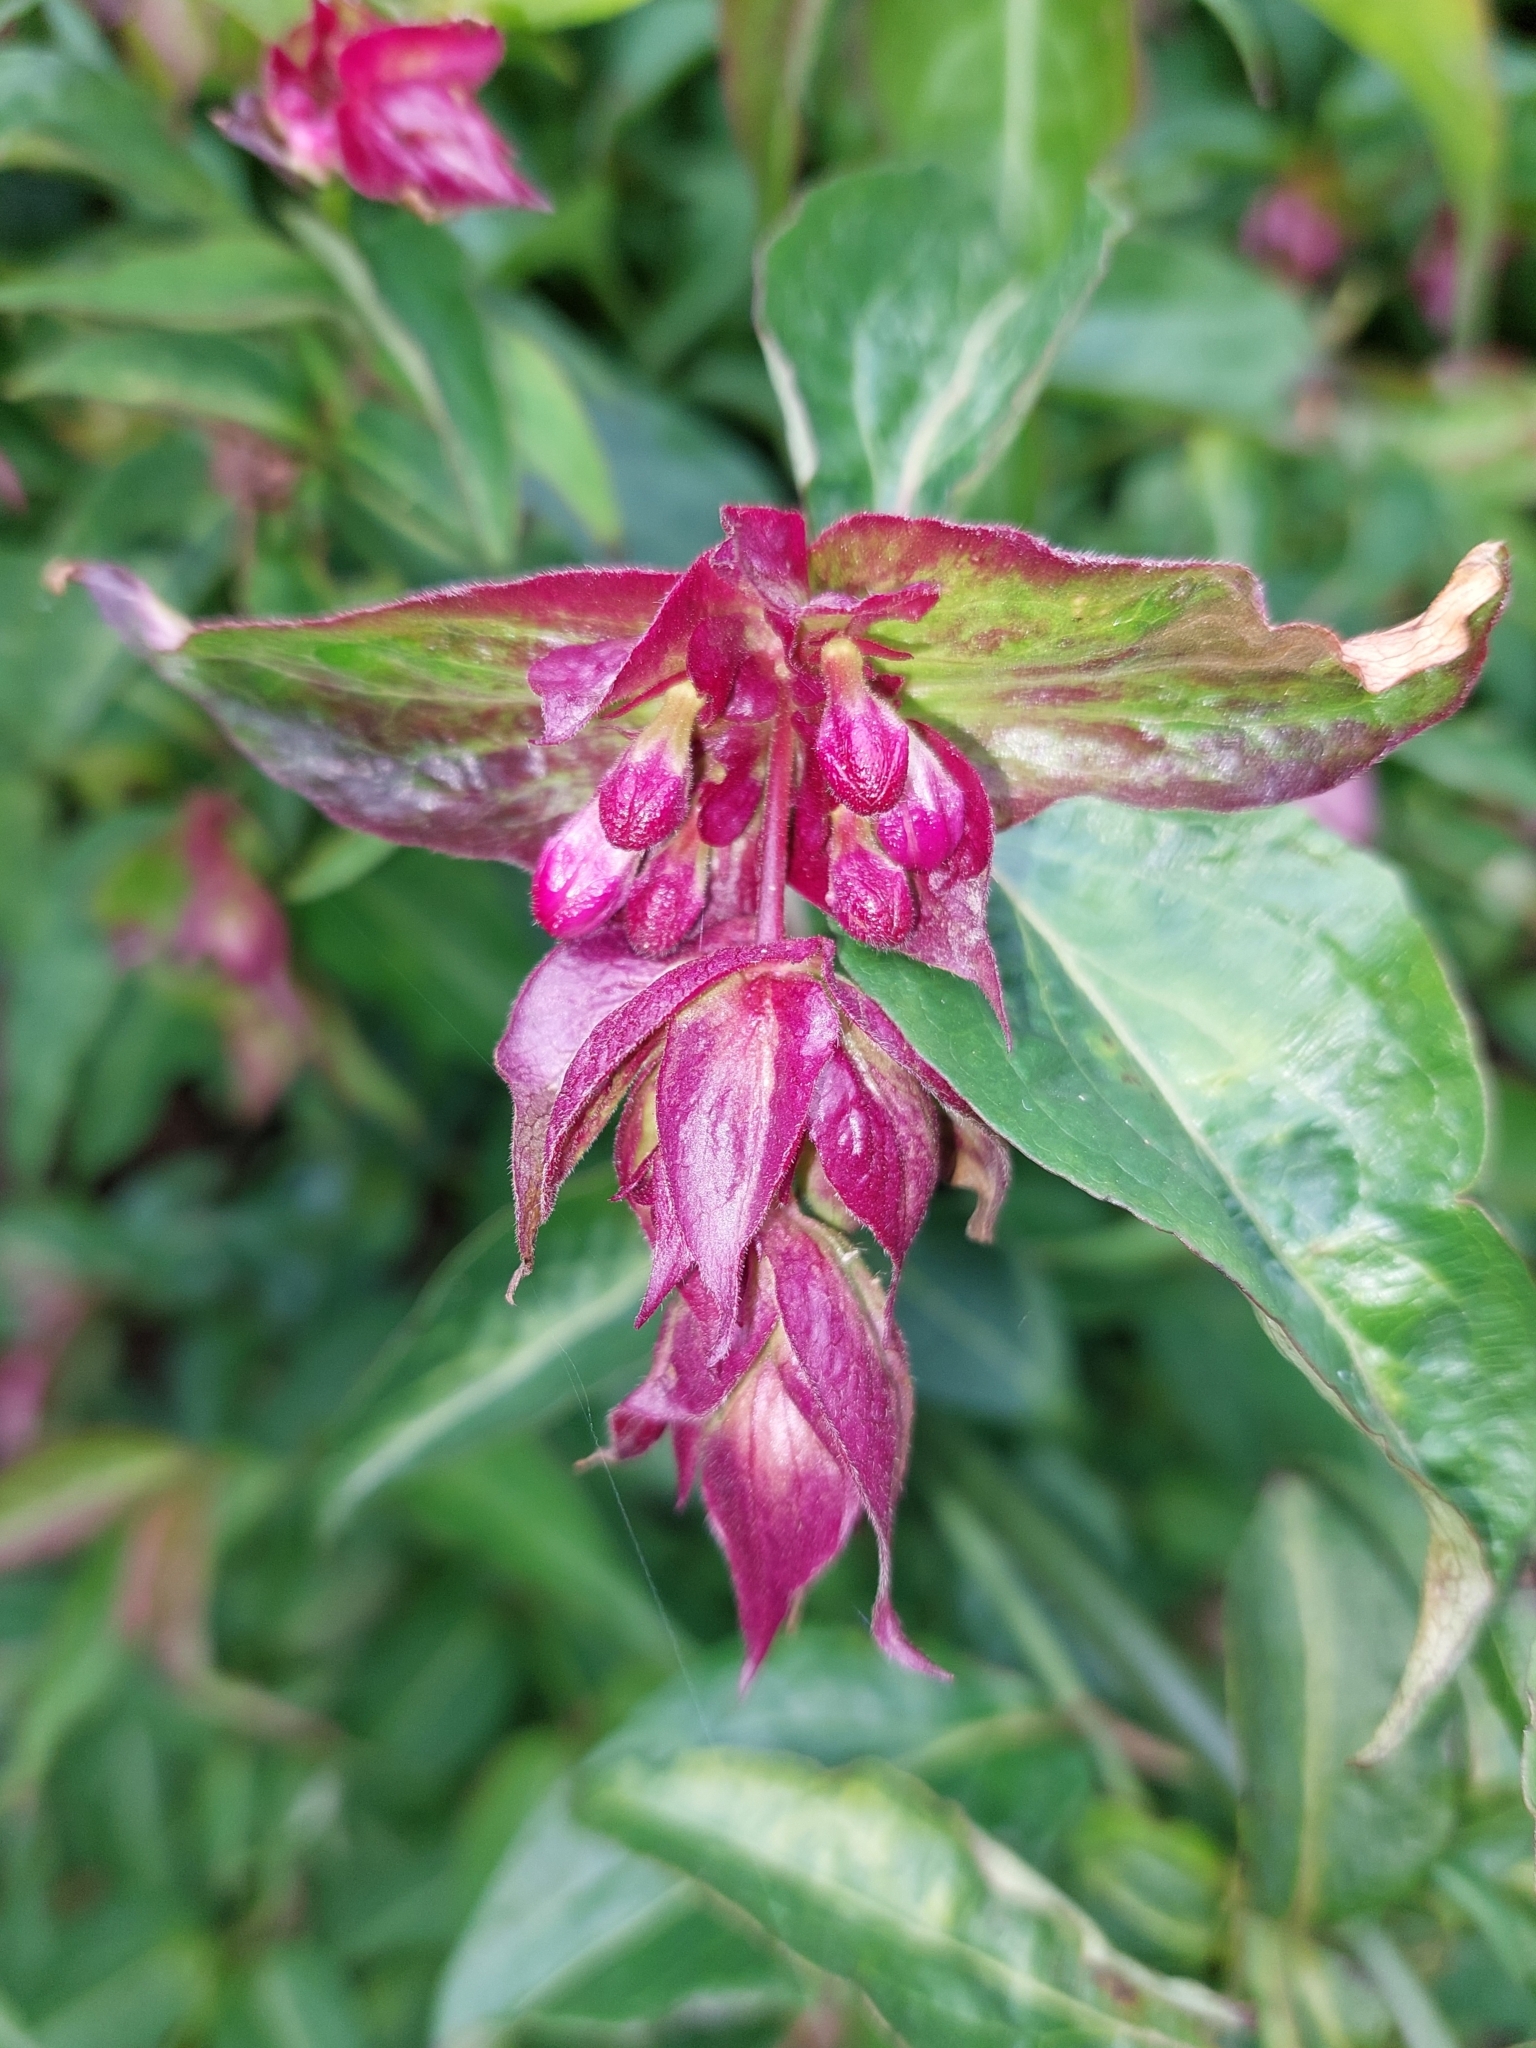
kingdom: Plantae
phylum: Tracheophyta
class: Magnoliopsida
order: Dipsacales
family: Caprifoliaceae
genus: Leycesteria
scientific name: Leycesteria formosa
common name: Himalayan honeysuckle
